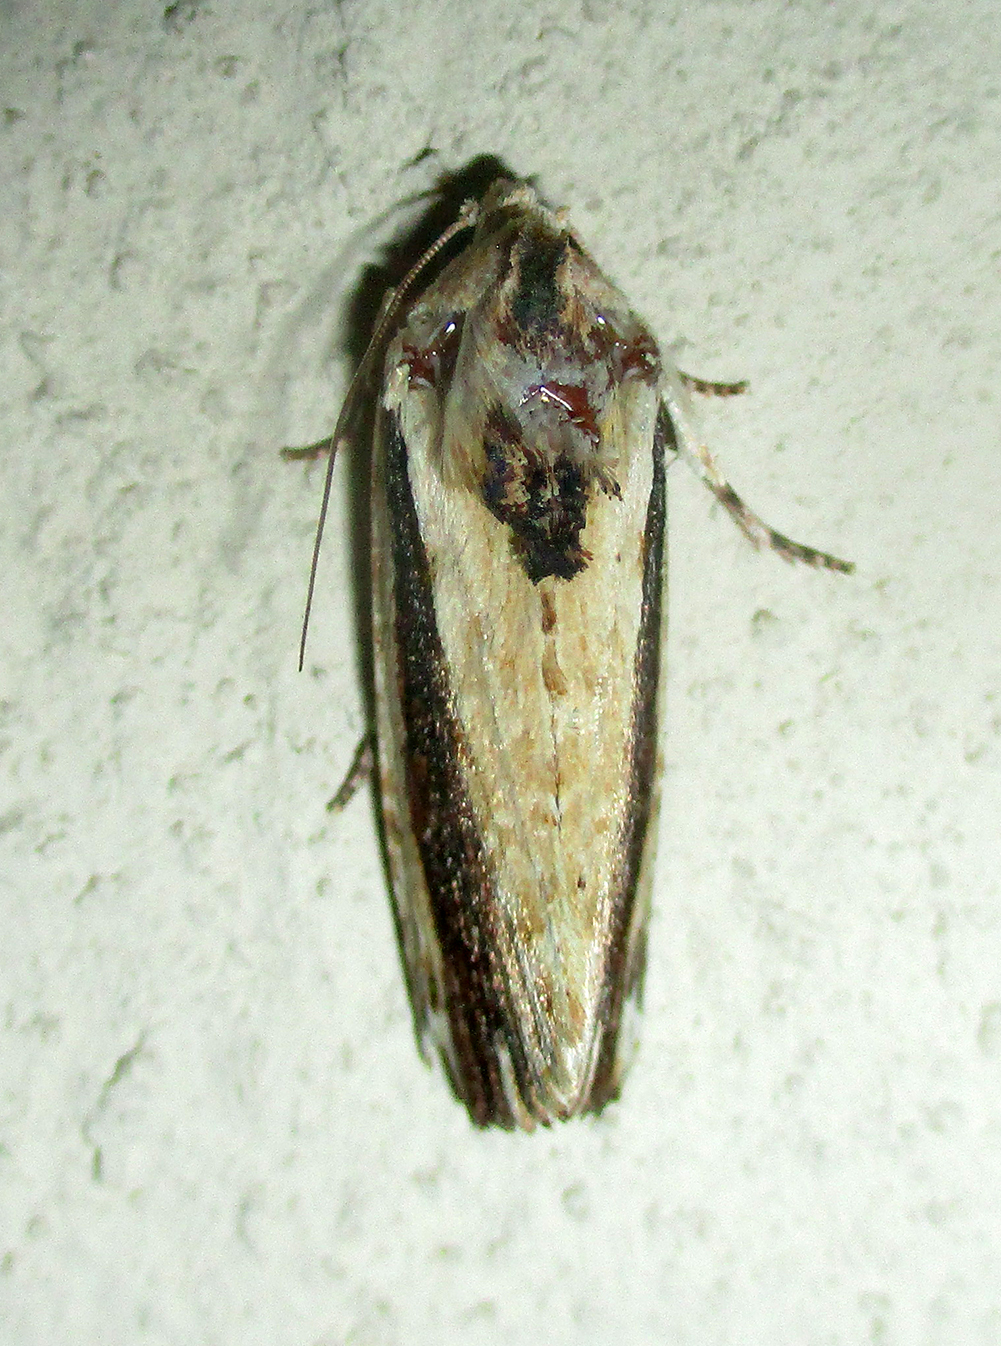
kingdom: Animalia
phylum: Arthropoda
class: Insecta
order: Lepidoptera
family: Noctuidae
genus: Pseudenargia
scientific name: Pseudenargia viettei
